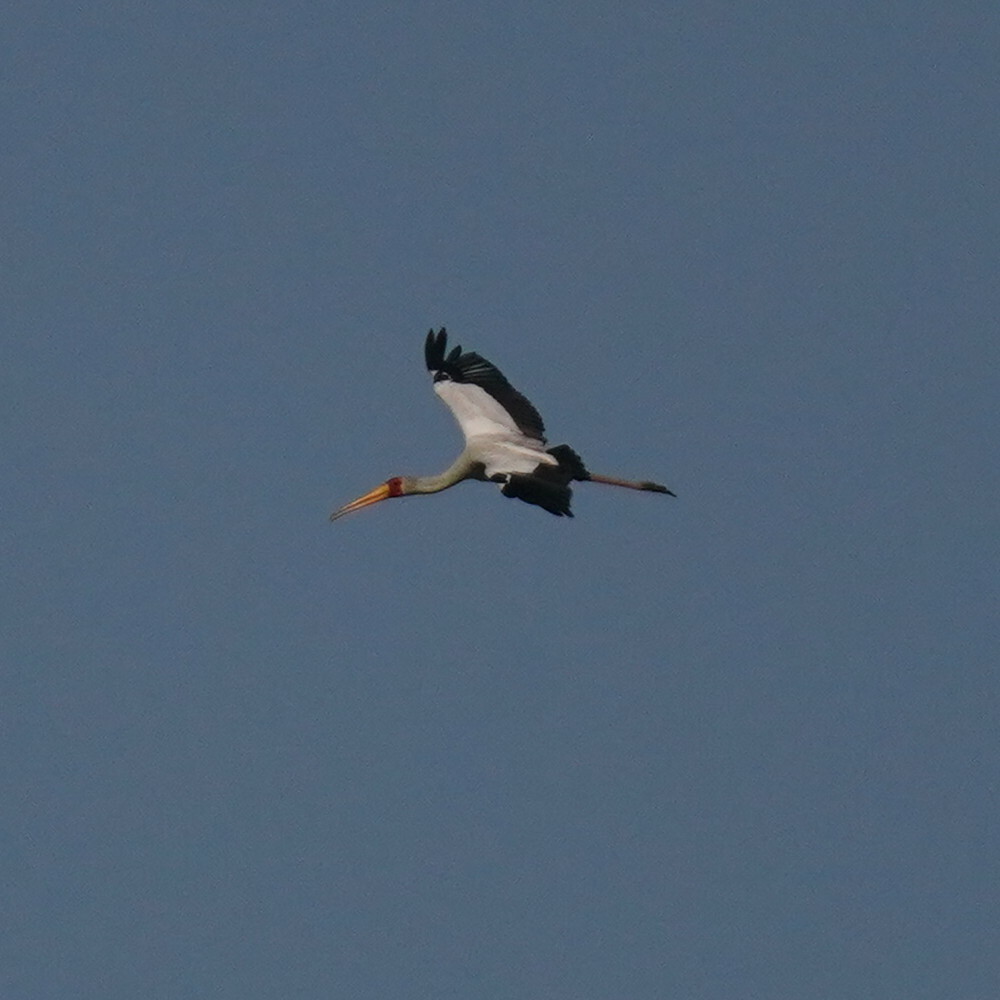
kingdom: Animalia
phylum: Chordata
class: Aves
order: Ciconiiformes
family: Ciconiidae
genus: Mycteria
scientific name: Mycteria ibis
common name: Yellow-billed stork
